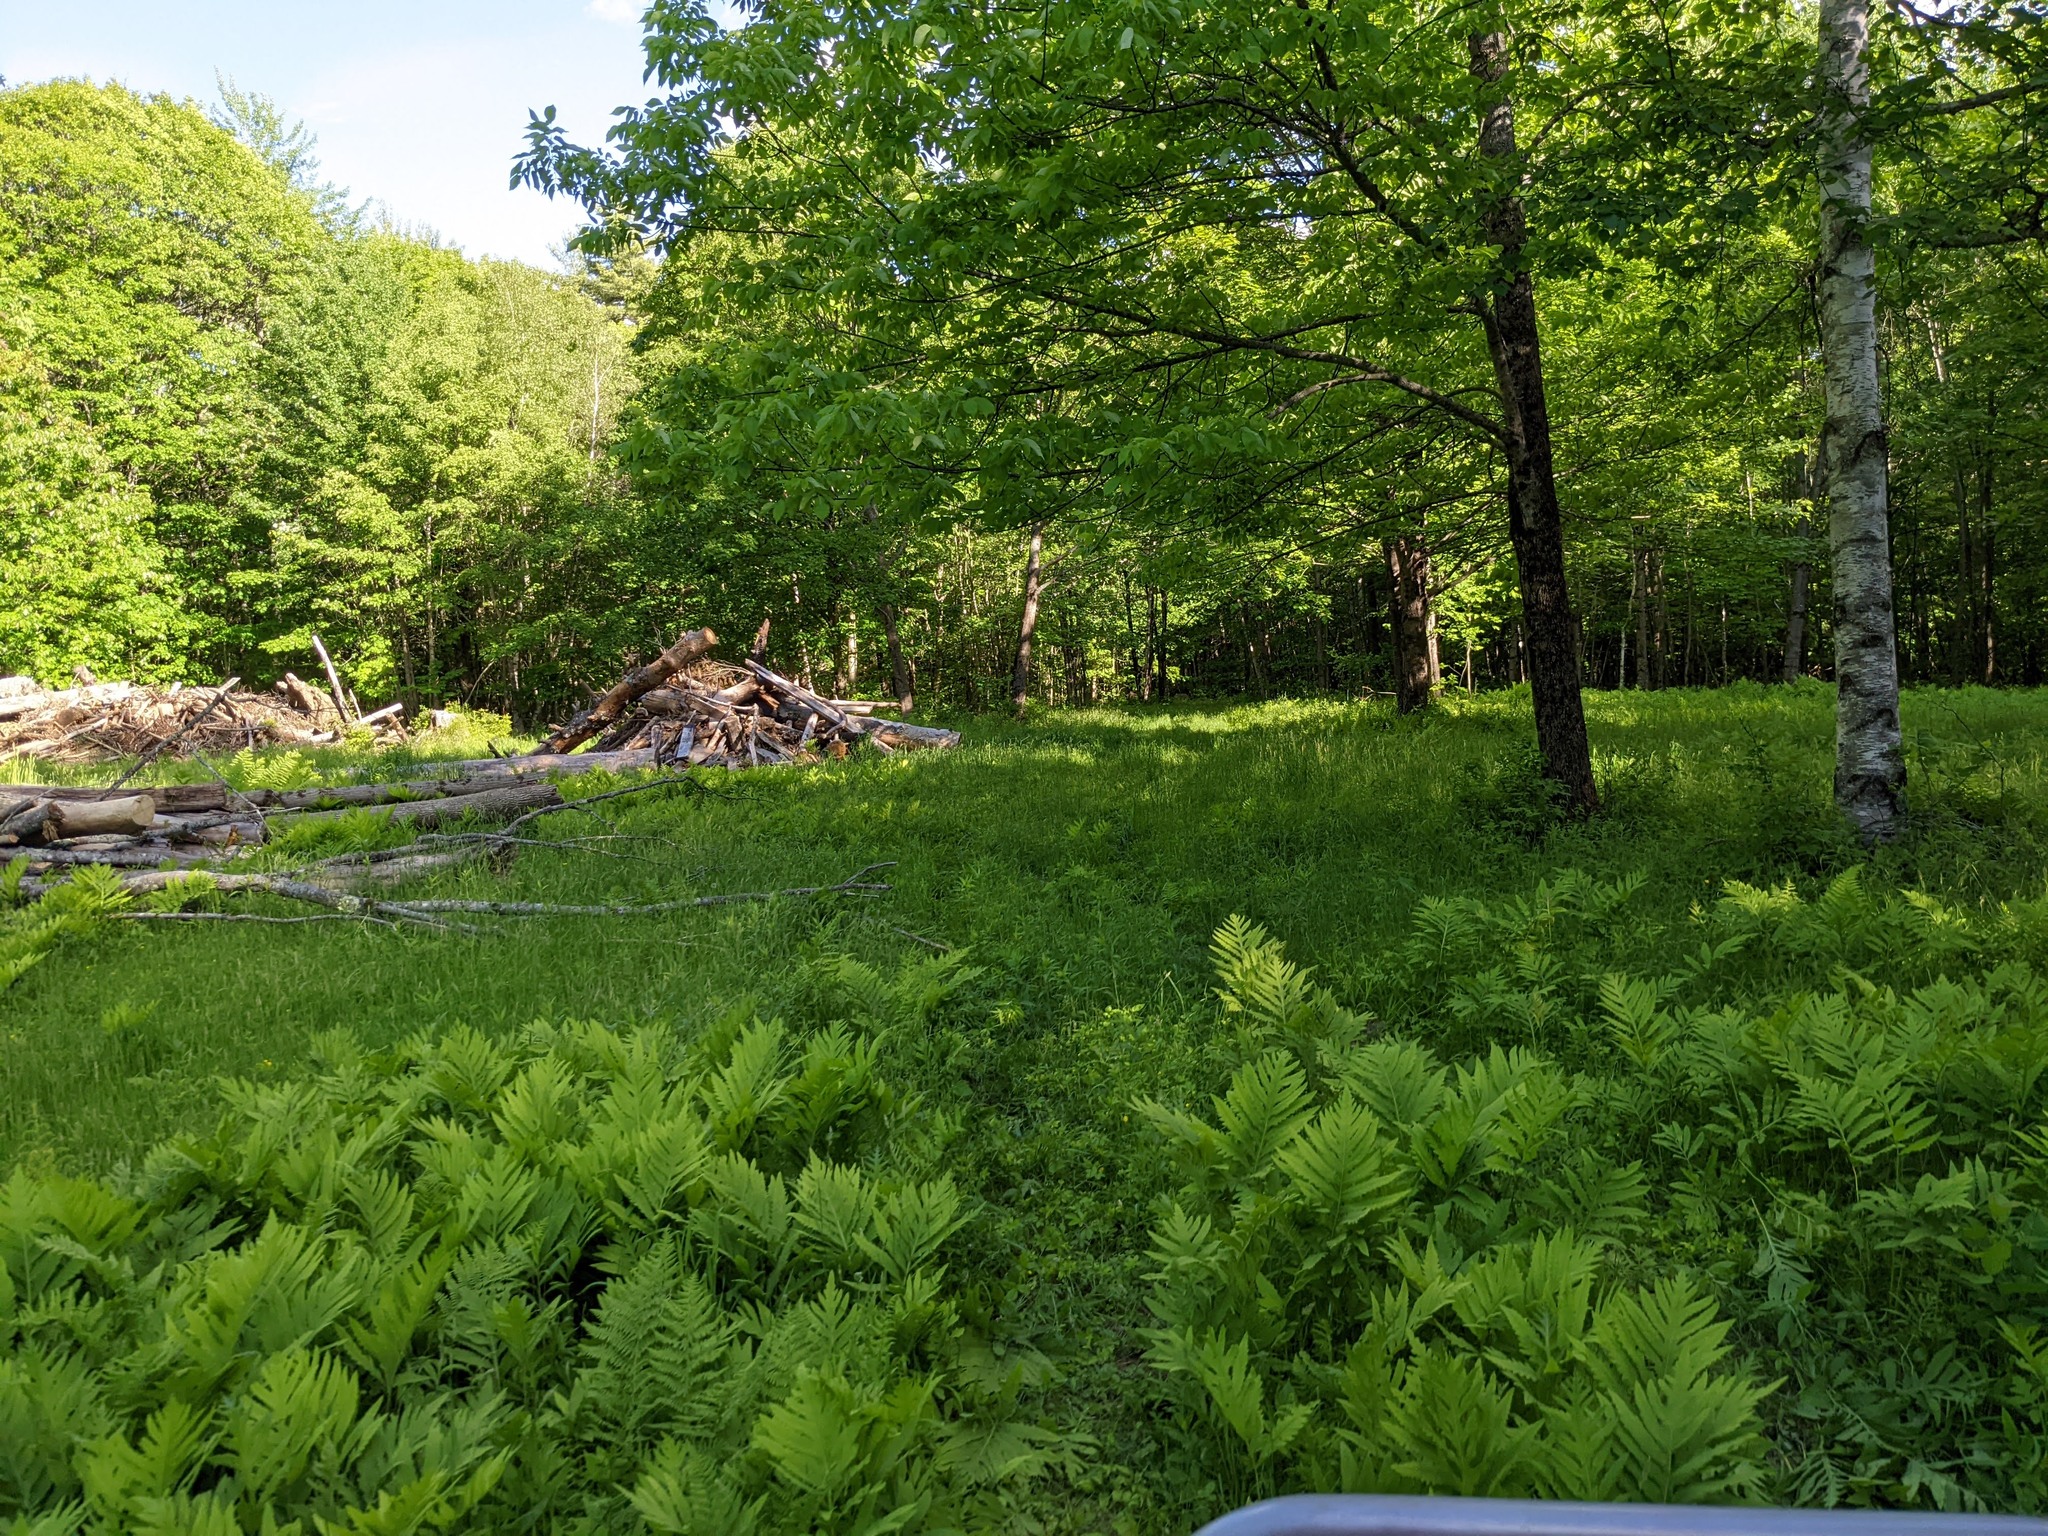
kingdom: Plantae
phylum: Tracheophyta
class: Polypodiopsida
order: Polypodiales
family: Onocleaceae
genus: Onoclea
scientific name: Onoclea sensibilis
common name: Sensitive fern
